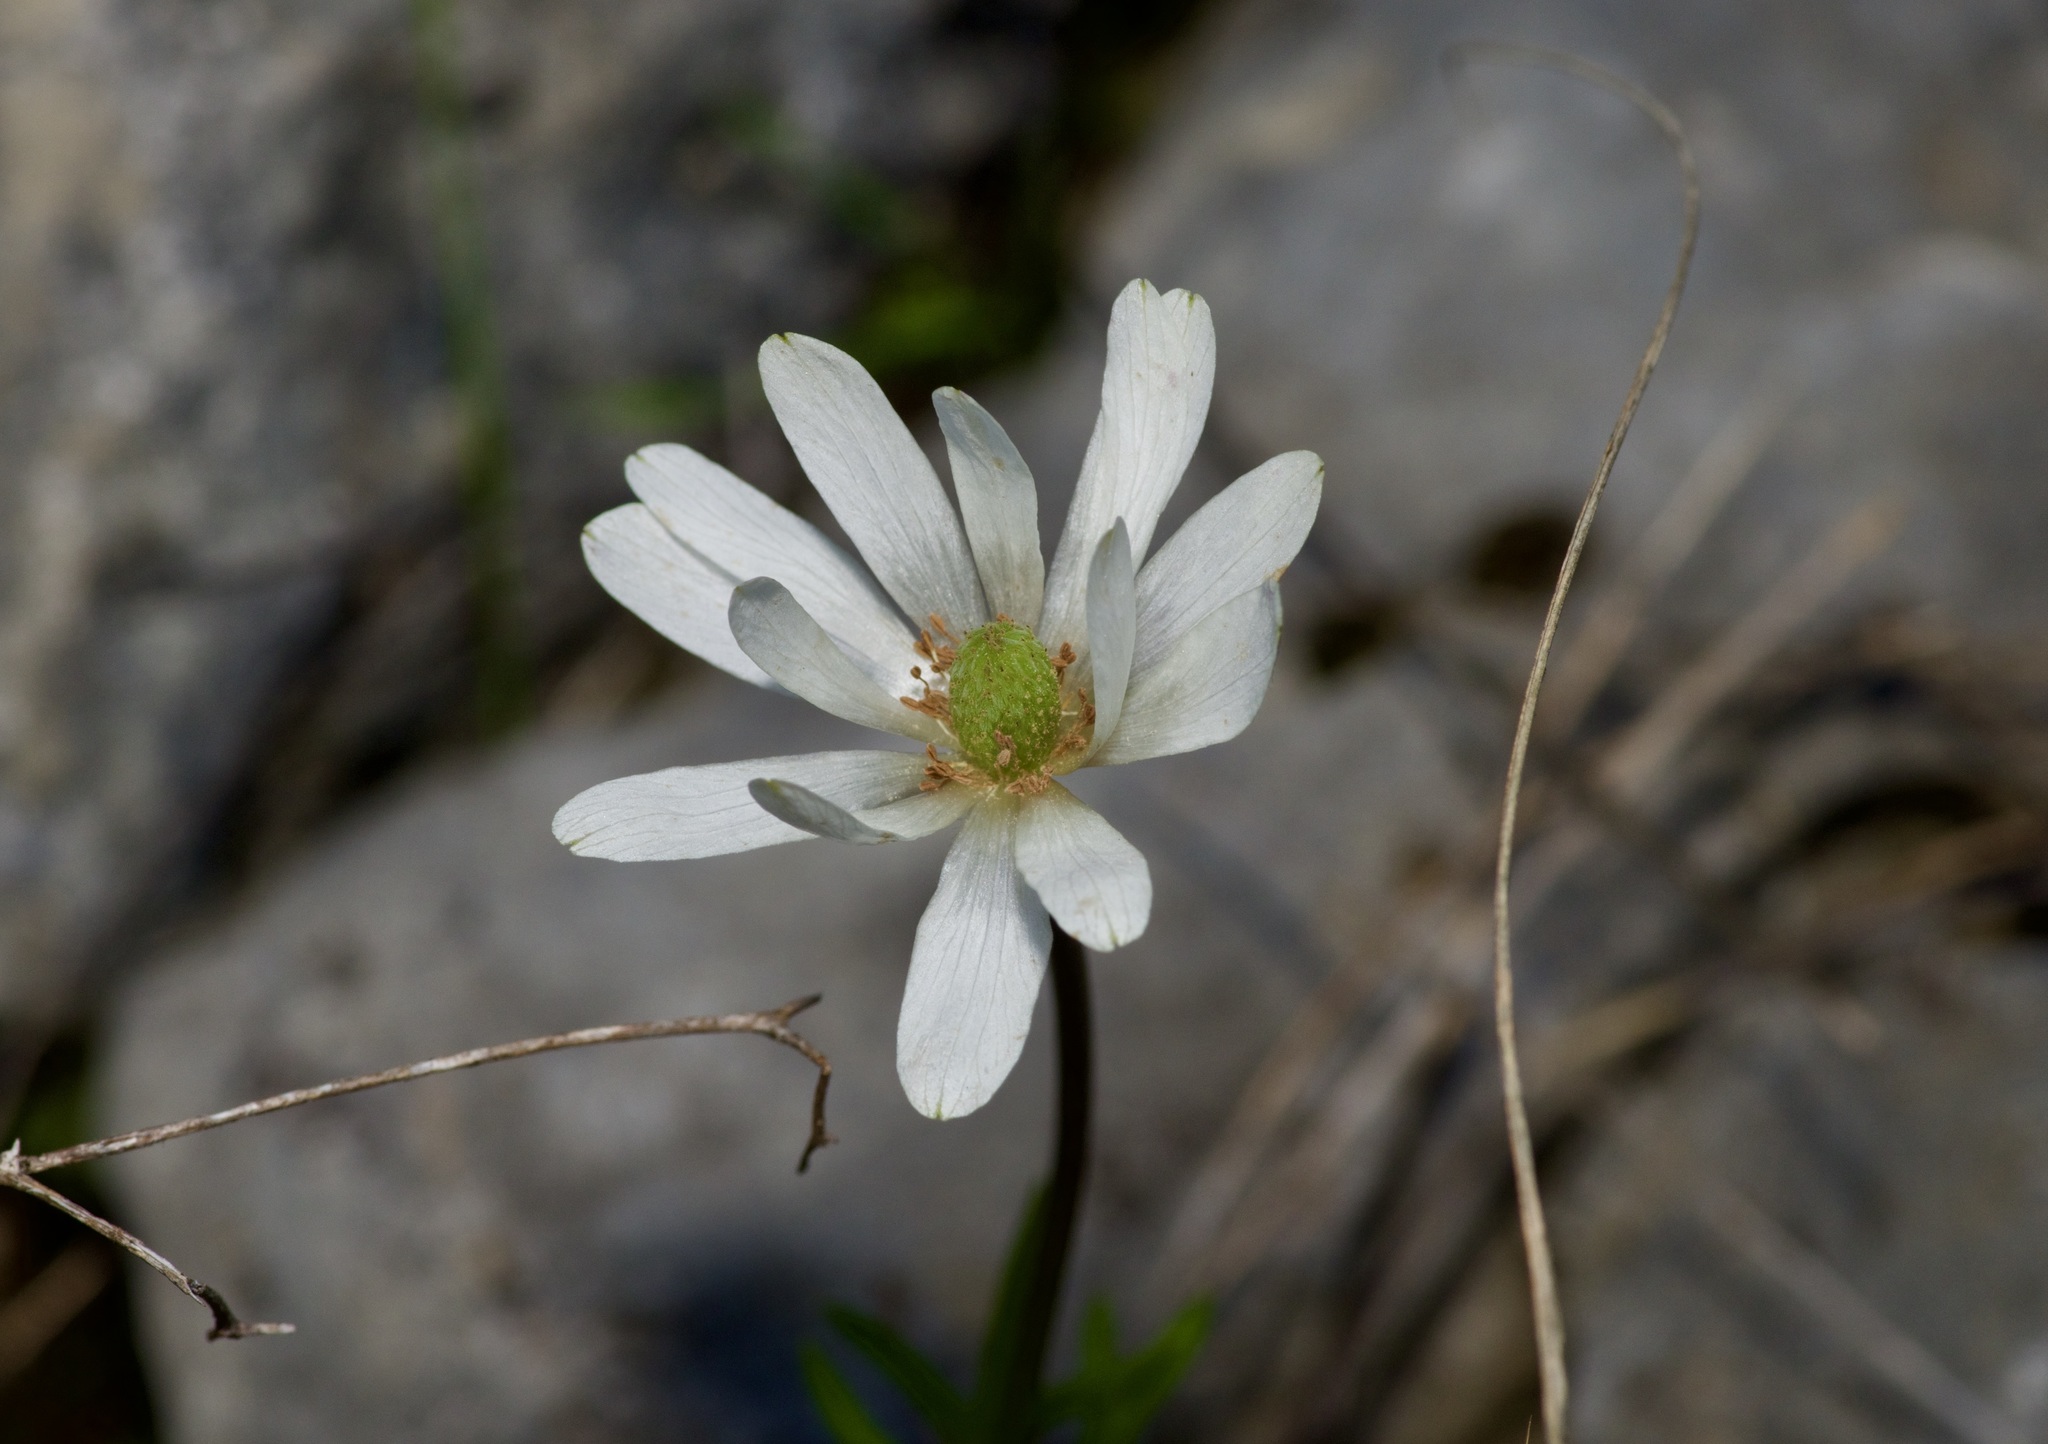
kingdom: Plantae
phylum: Tracheophyta
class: Magnoliopsida
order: Ranunculales
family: Ranunculaceae
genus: Anemone
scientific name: Anemone berlandieri
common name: Ten-petal anemone
